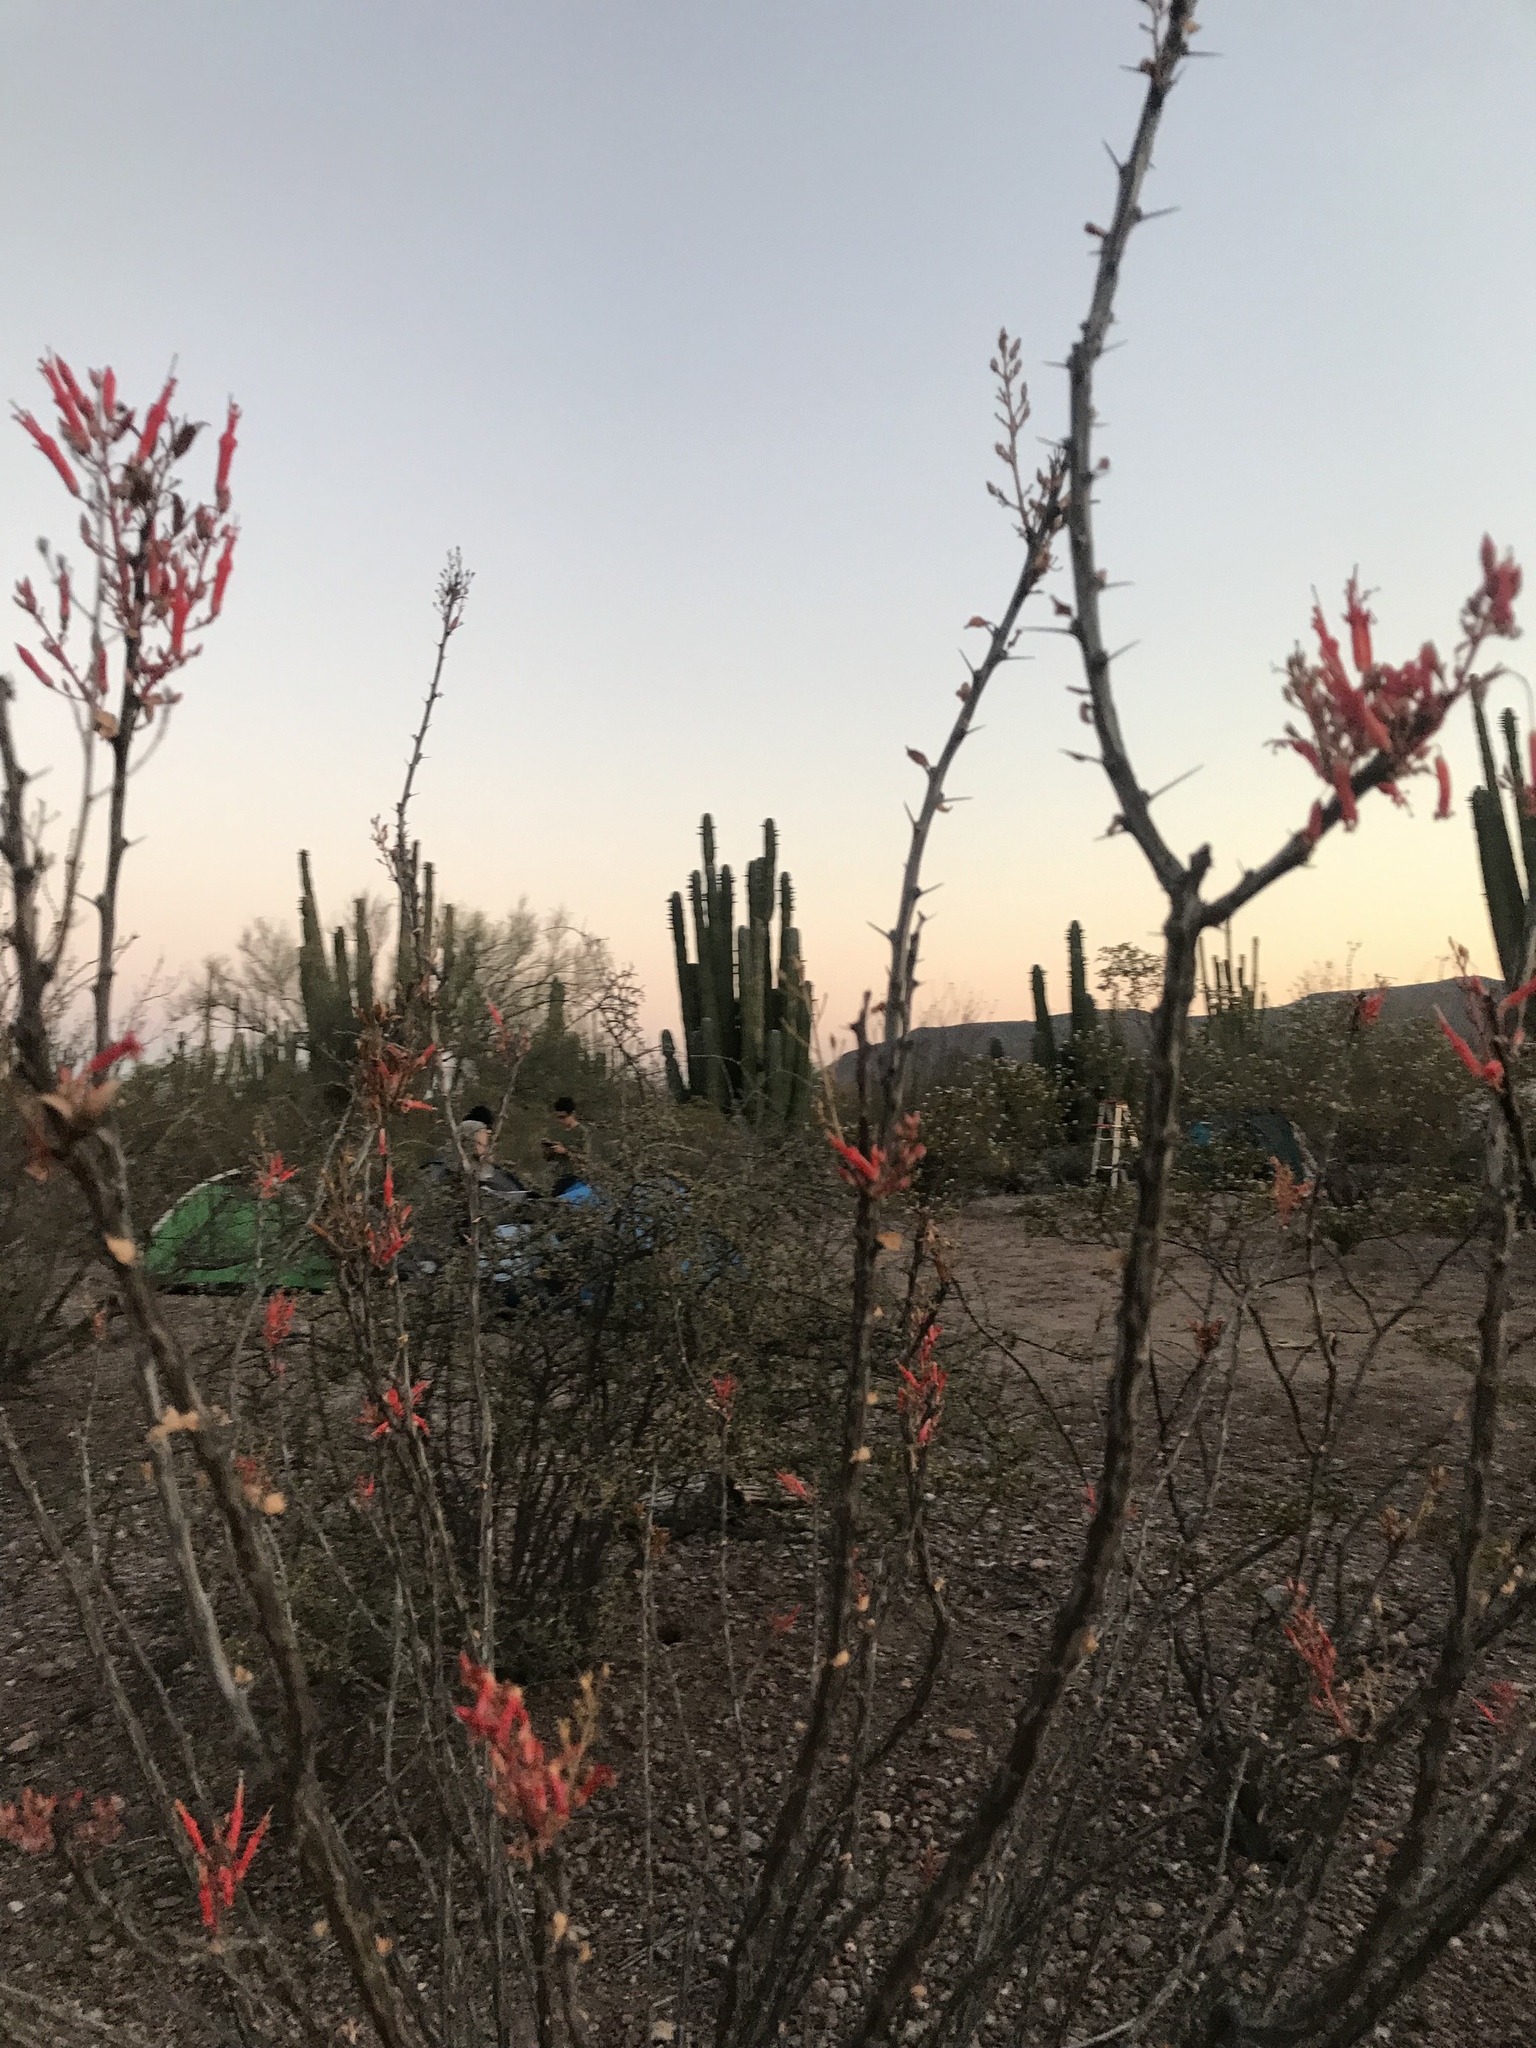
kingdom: Plantae
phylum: Tracheophyta
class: Magnoliopsida
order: Ericales
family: Fouquieriaceae
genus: Fouquieria
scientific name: Fouquieria diguetii
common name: Adam's tree
